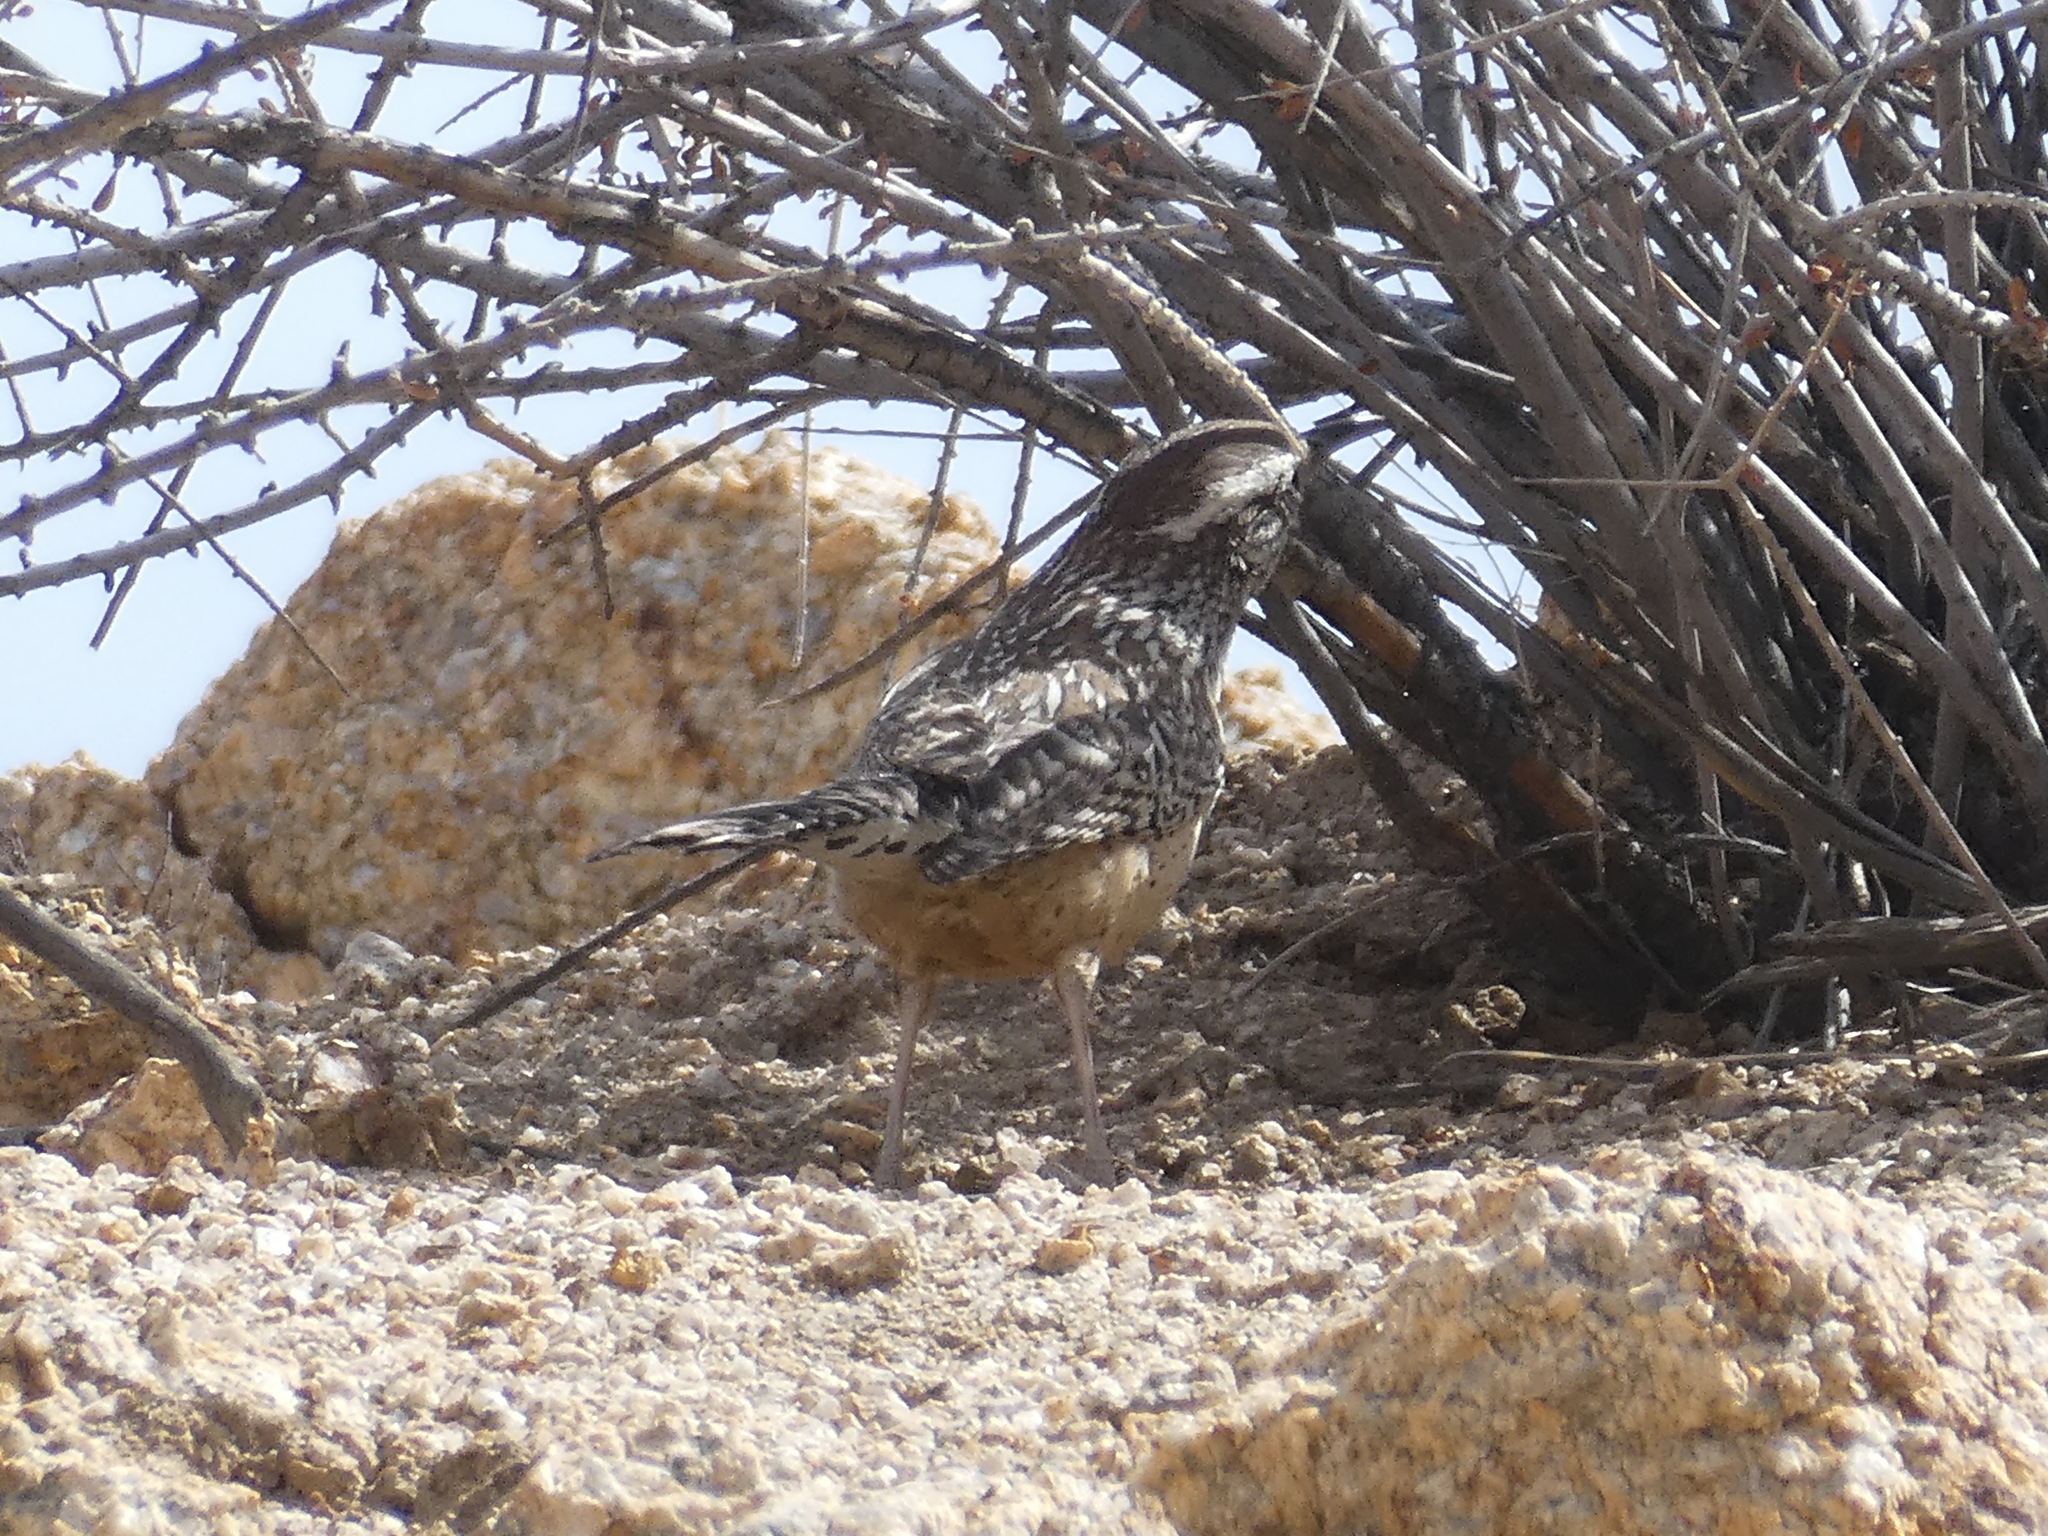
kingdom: Animalia
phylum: Chordata
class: Aves
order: Passeriformes
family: Troglodytidae
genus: Campylorhynchus
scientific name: Campylorhynchus brunneicapillus
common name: Cactus wren
